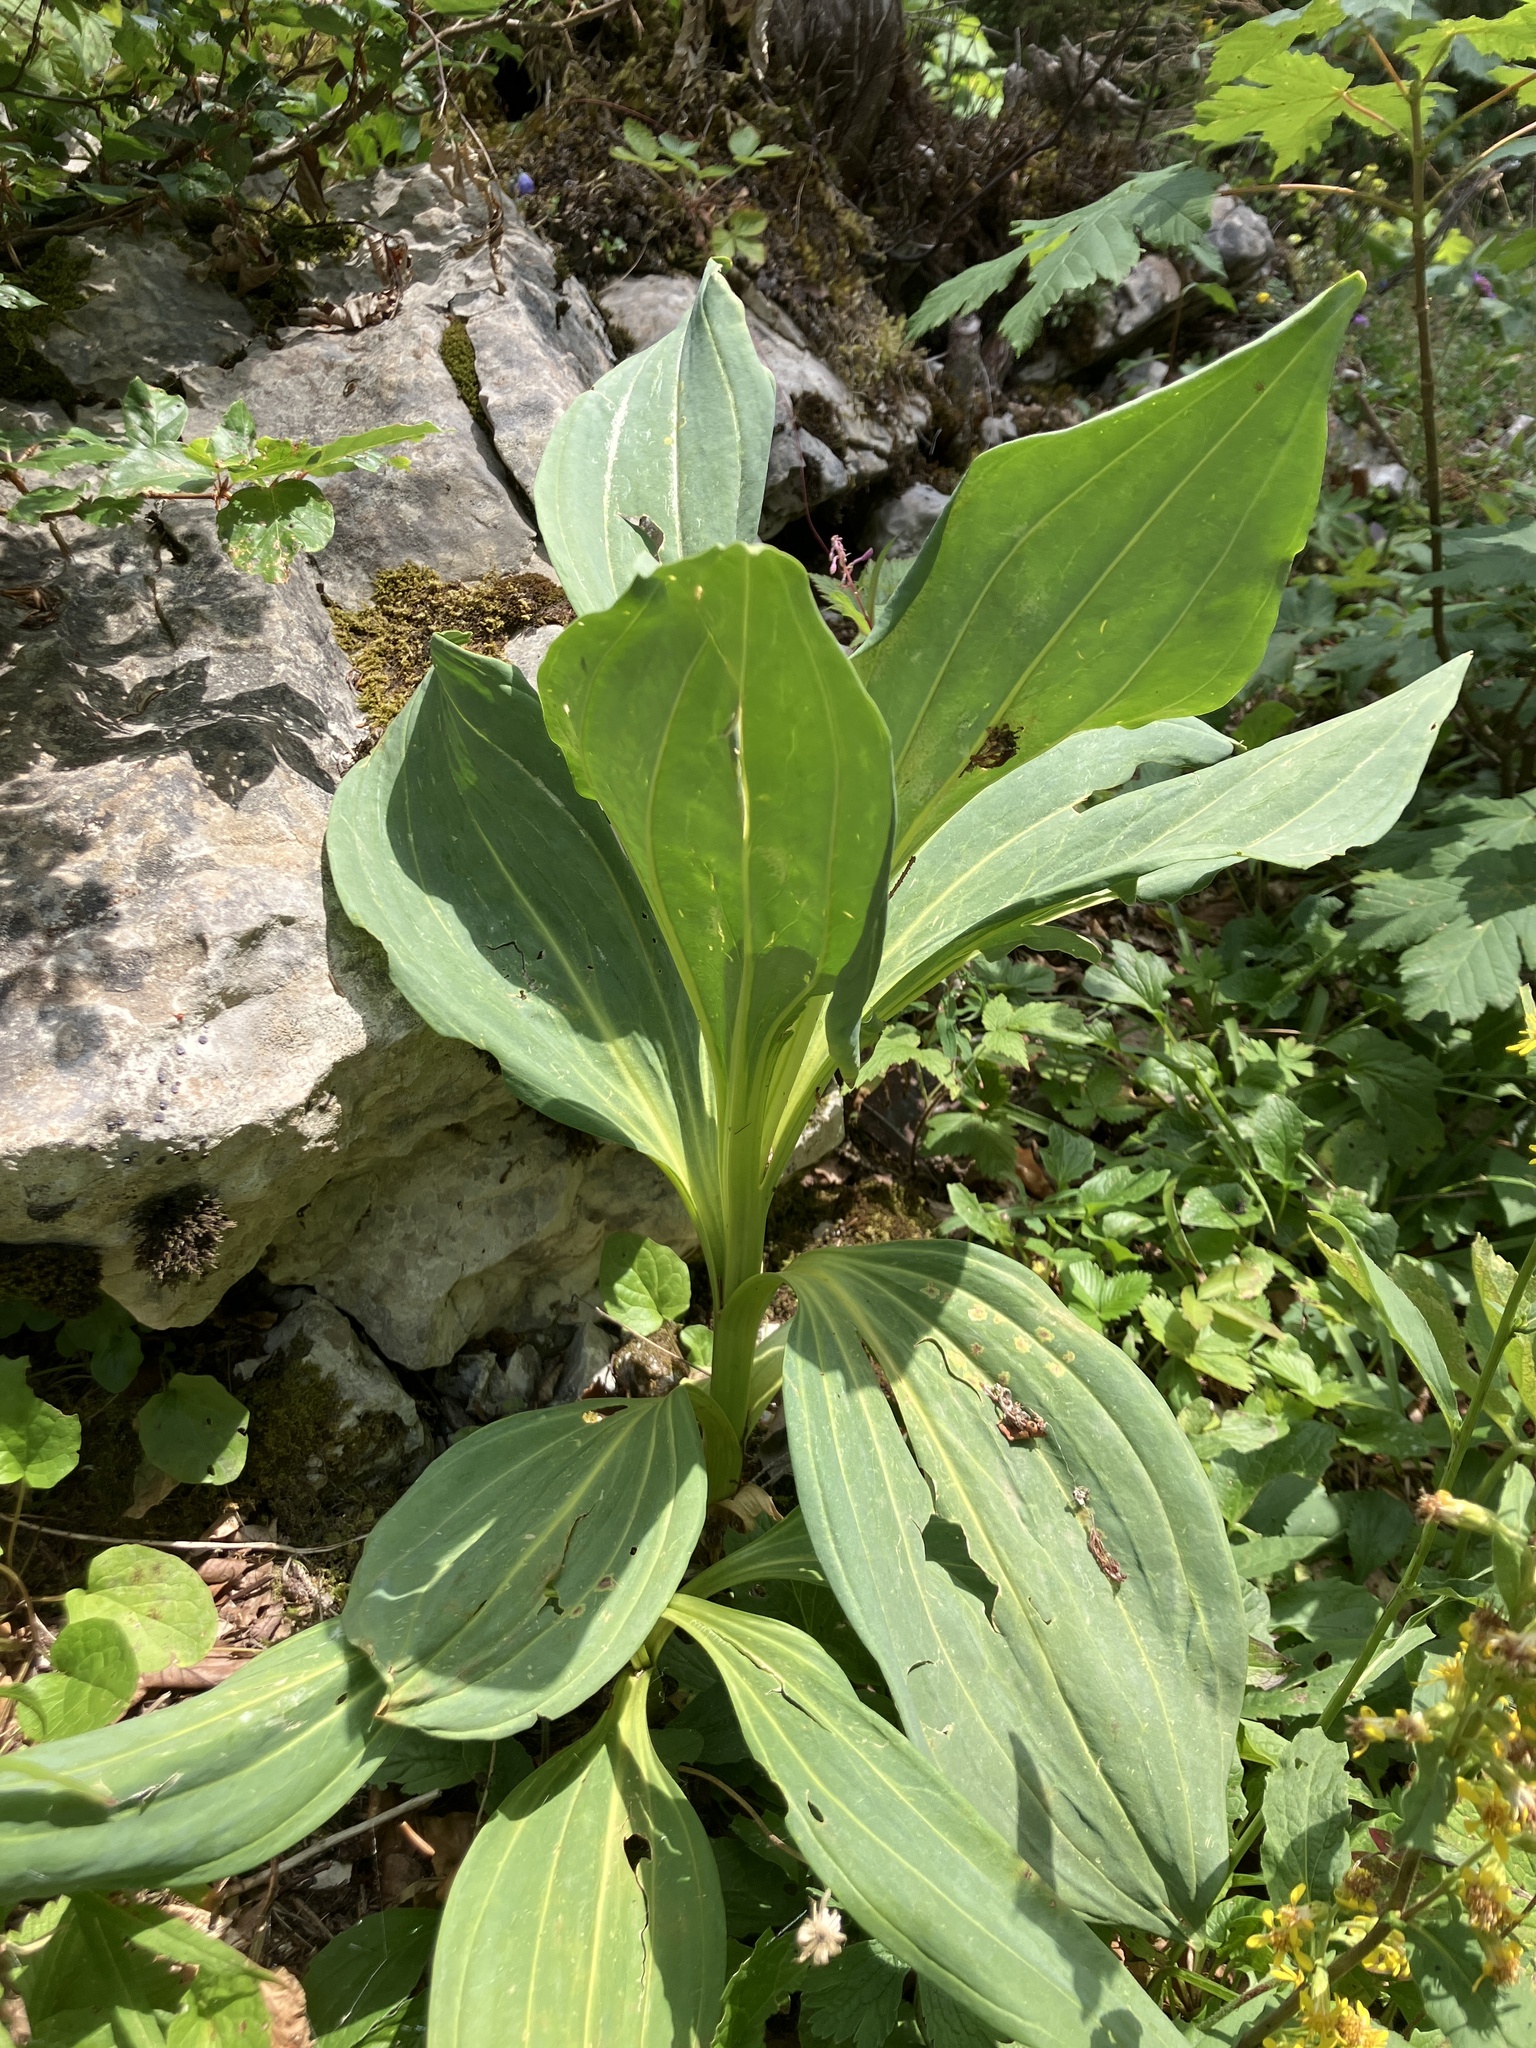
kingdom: Plantae
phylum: Tracheophyta
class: Magnoliopsida
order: Gentianales
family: Gentianaceae
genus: Gentiana
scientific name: Gentiana lutea
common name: Great yellow gentian
